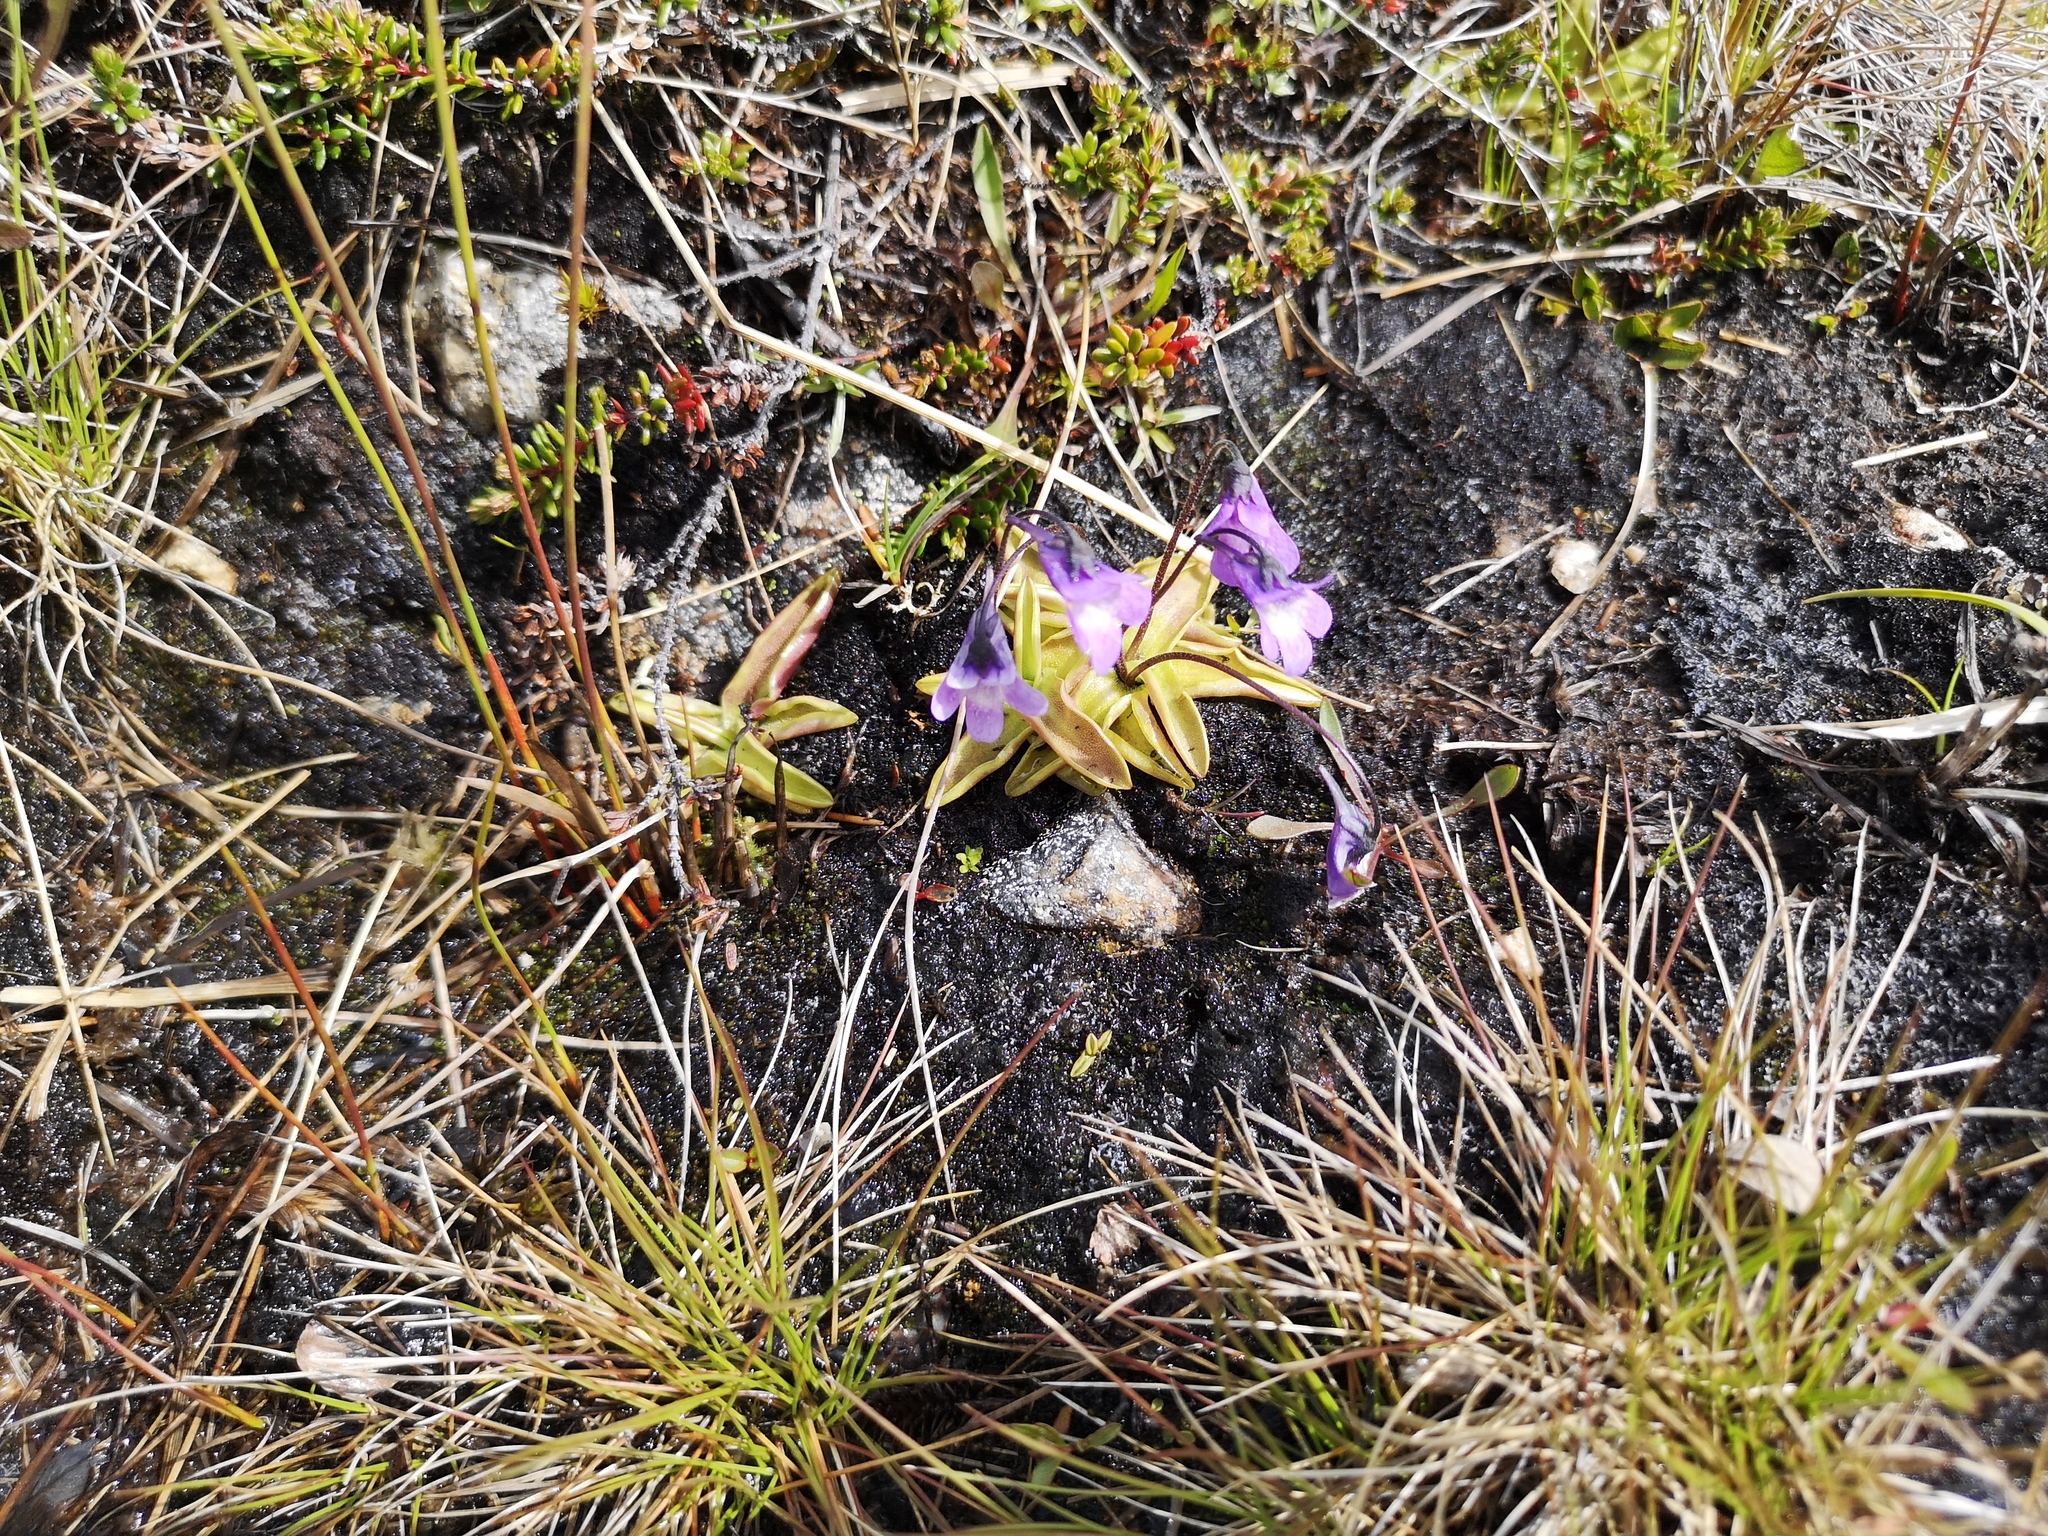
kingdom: Plantae
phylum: Tracheophyta
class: Magnoliopsida
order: Lamiales
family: Lentibulariaceae
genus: Pinguicula
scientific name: Pinguicula vulgaris
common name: Common butterwort
